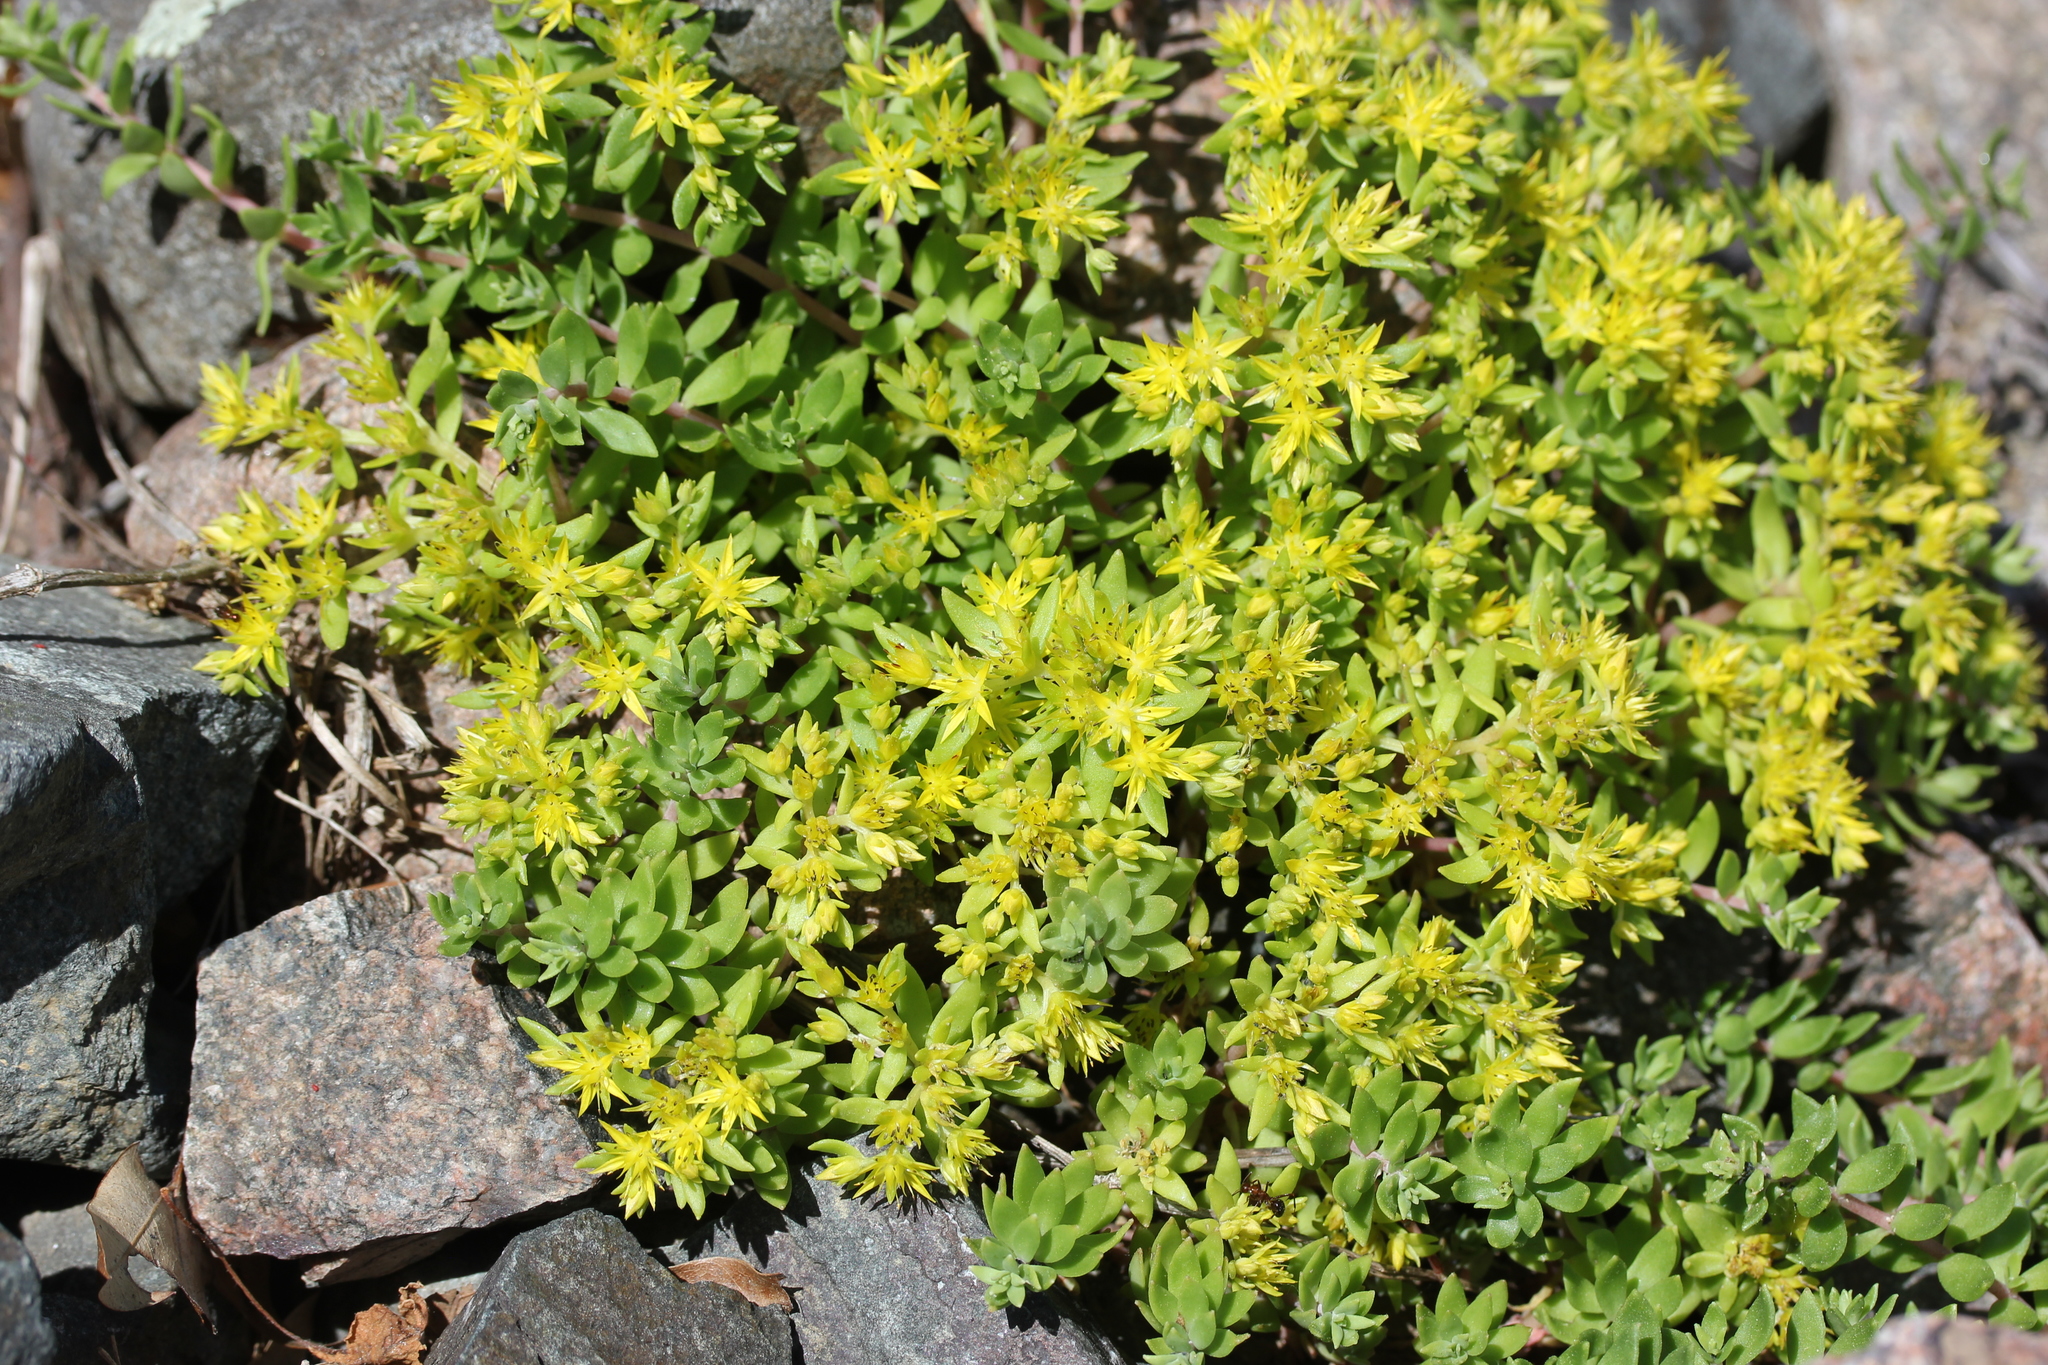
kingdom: Plantae
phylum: Tracheophyta
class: Magnoliopsida
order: Saxifragales
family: Crassulaceae
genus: Sedum
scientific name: Sedum sarmentosum
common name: Stringy stonecrop
